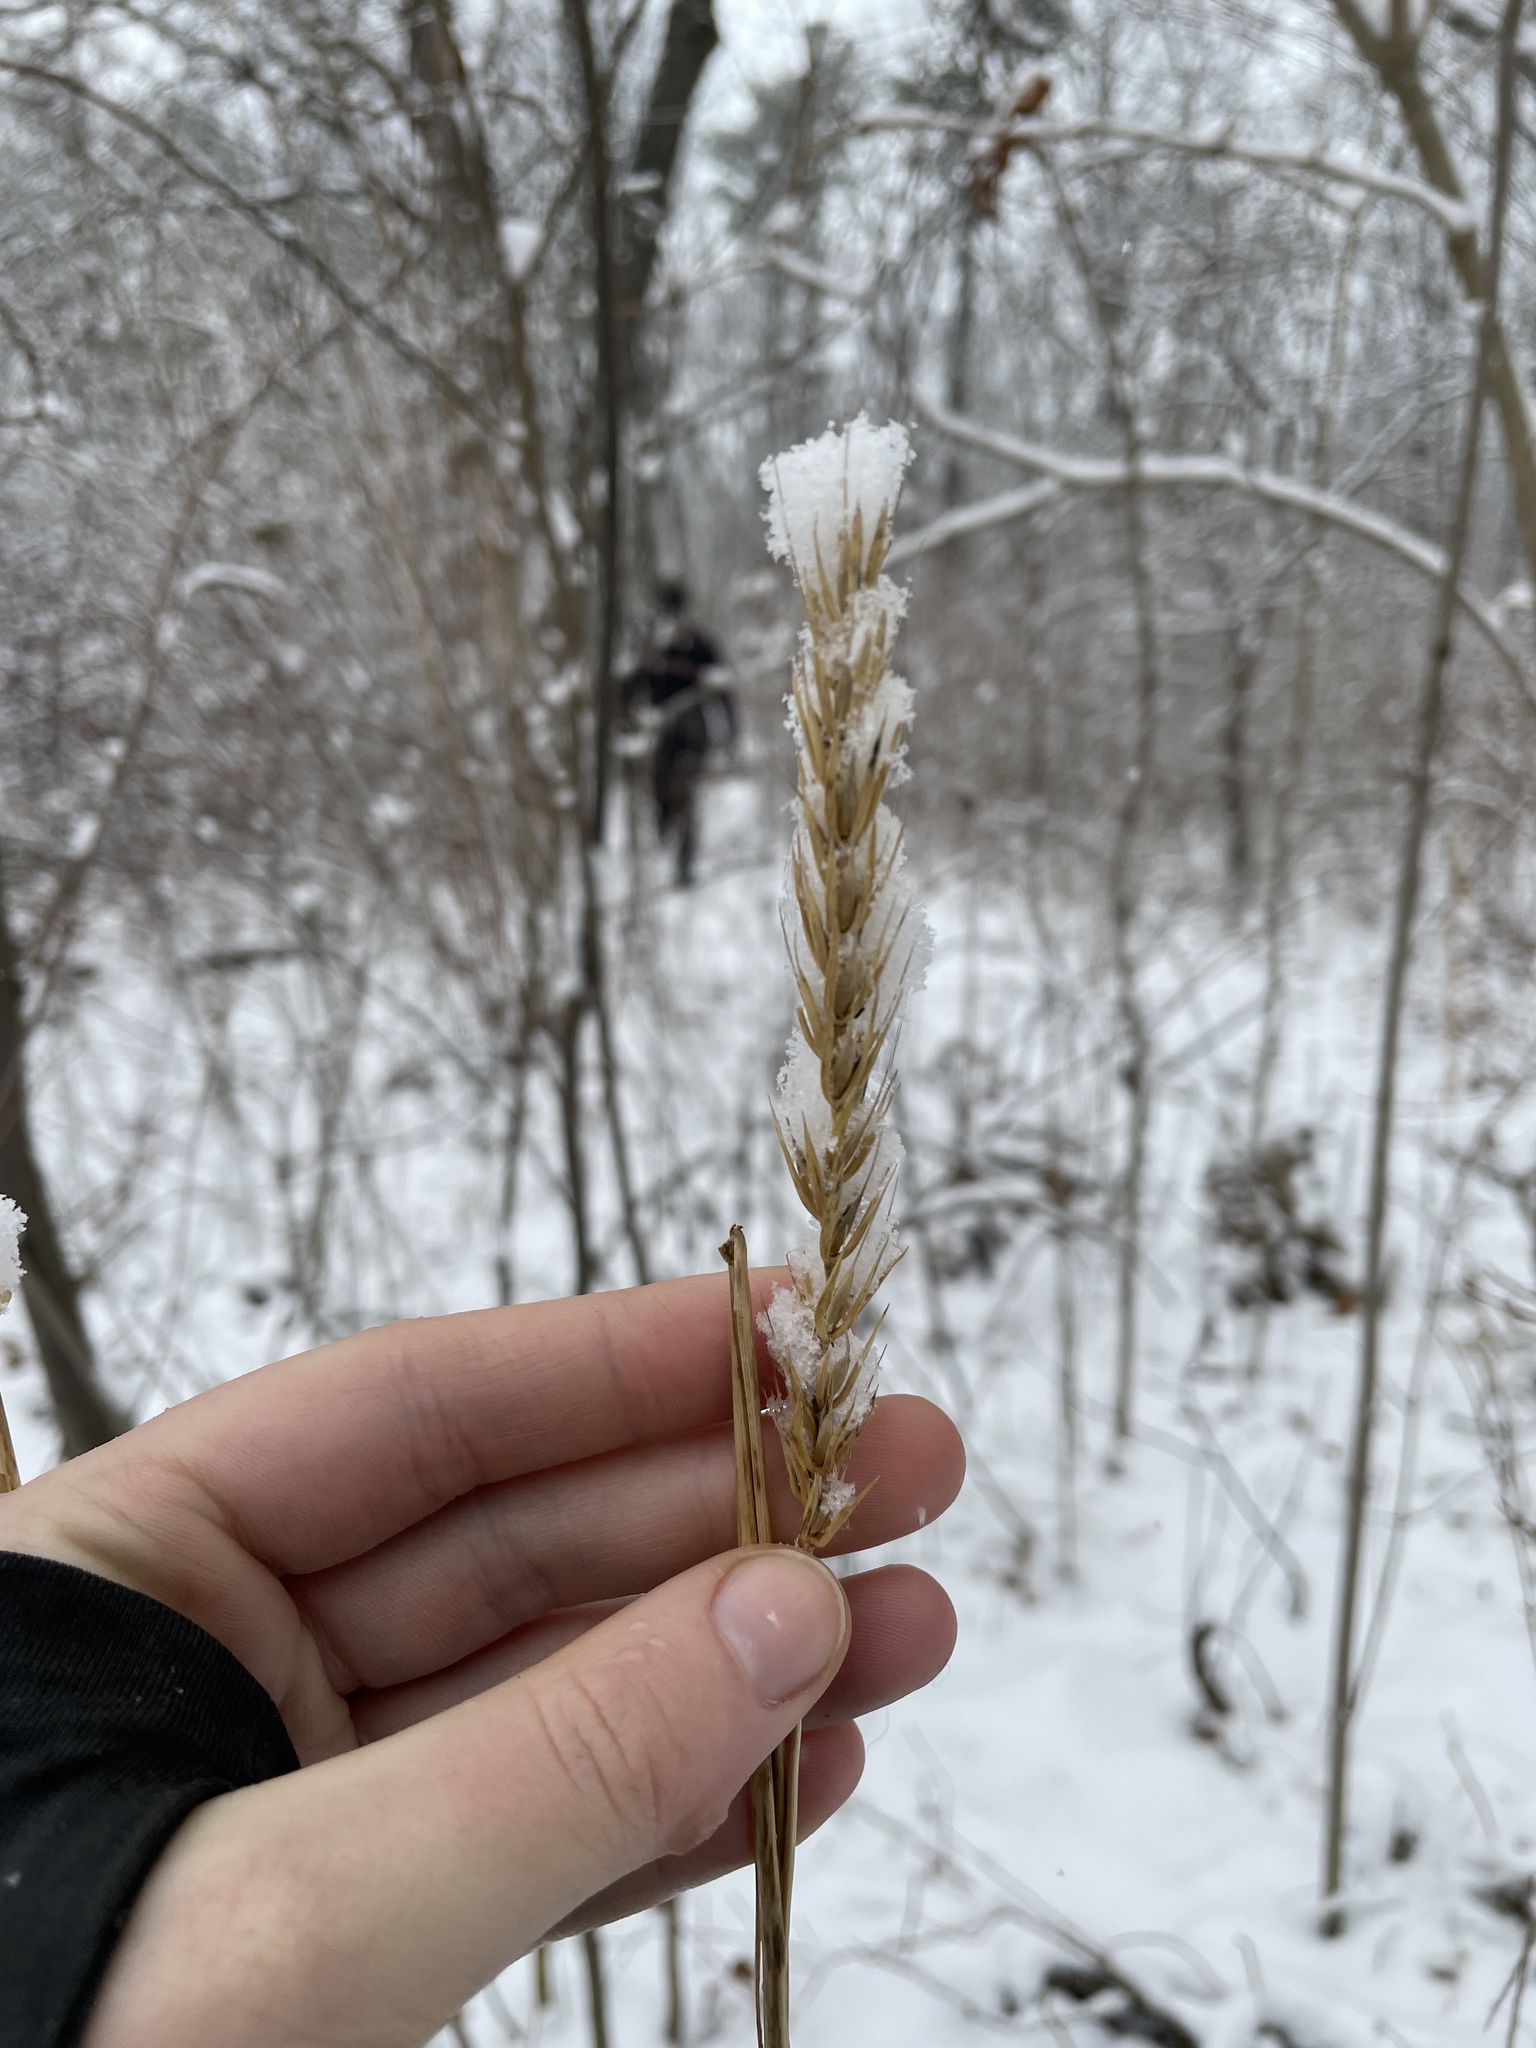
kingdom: Plantae
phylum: Tracheophyta
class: Liliopsida
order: Poales
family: Poaceae
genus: Elymus
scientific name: Elymus virginicus
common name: Common eastern wildrye
